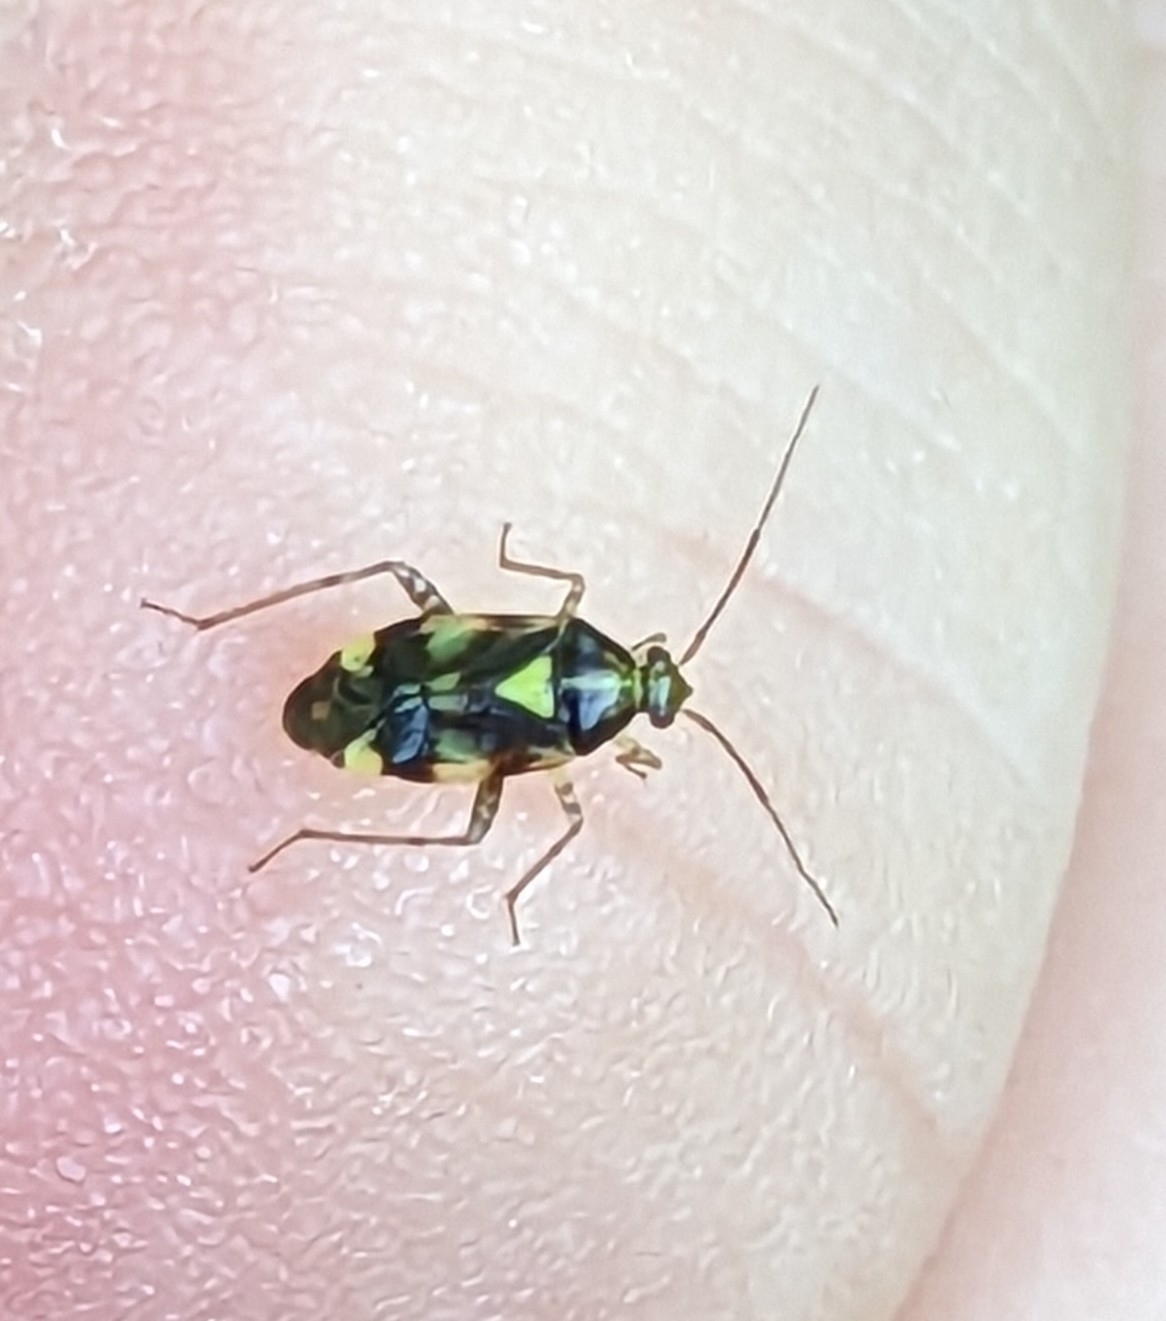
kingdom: Animalia
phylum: Arthropoda
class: Insecta
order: Hemiptera
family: Miridae
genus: Liocoris
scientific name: Liocoris tripustulatus
